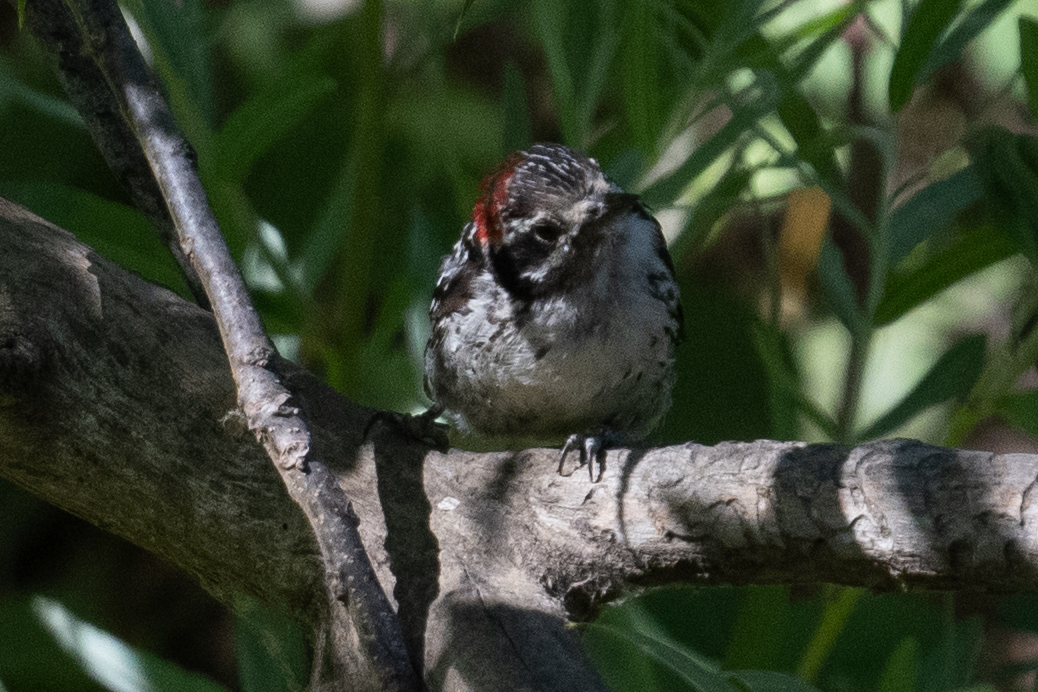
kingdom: Animalia
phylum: Chordata
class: Aves
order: Piciformes
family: Picidae
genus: Dryobates
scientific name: Dryobates nuttallii
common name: Nuttall's woodpecker
